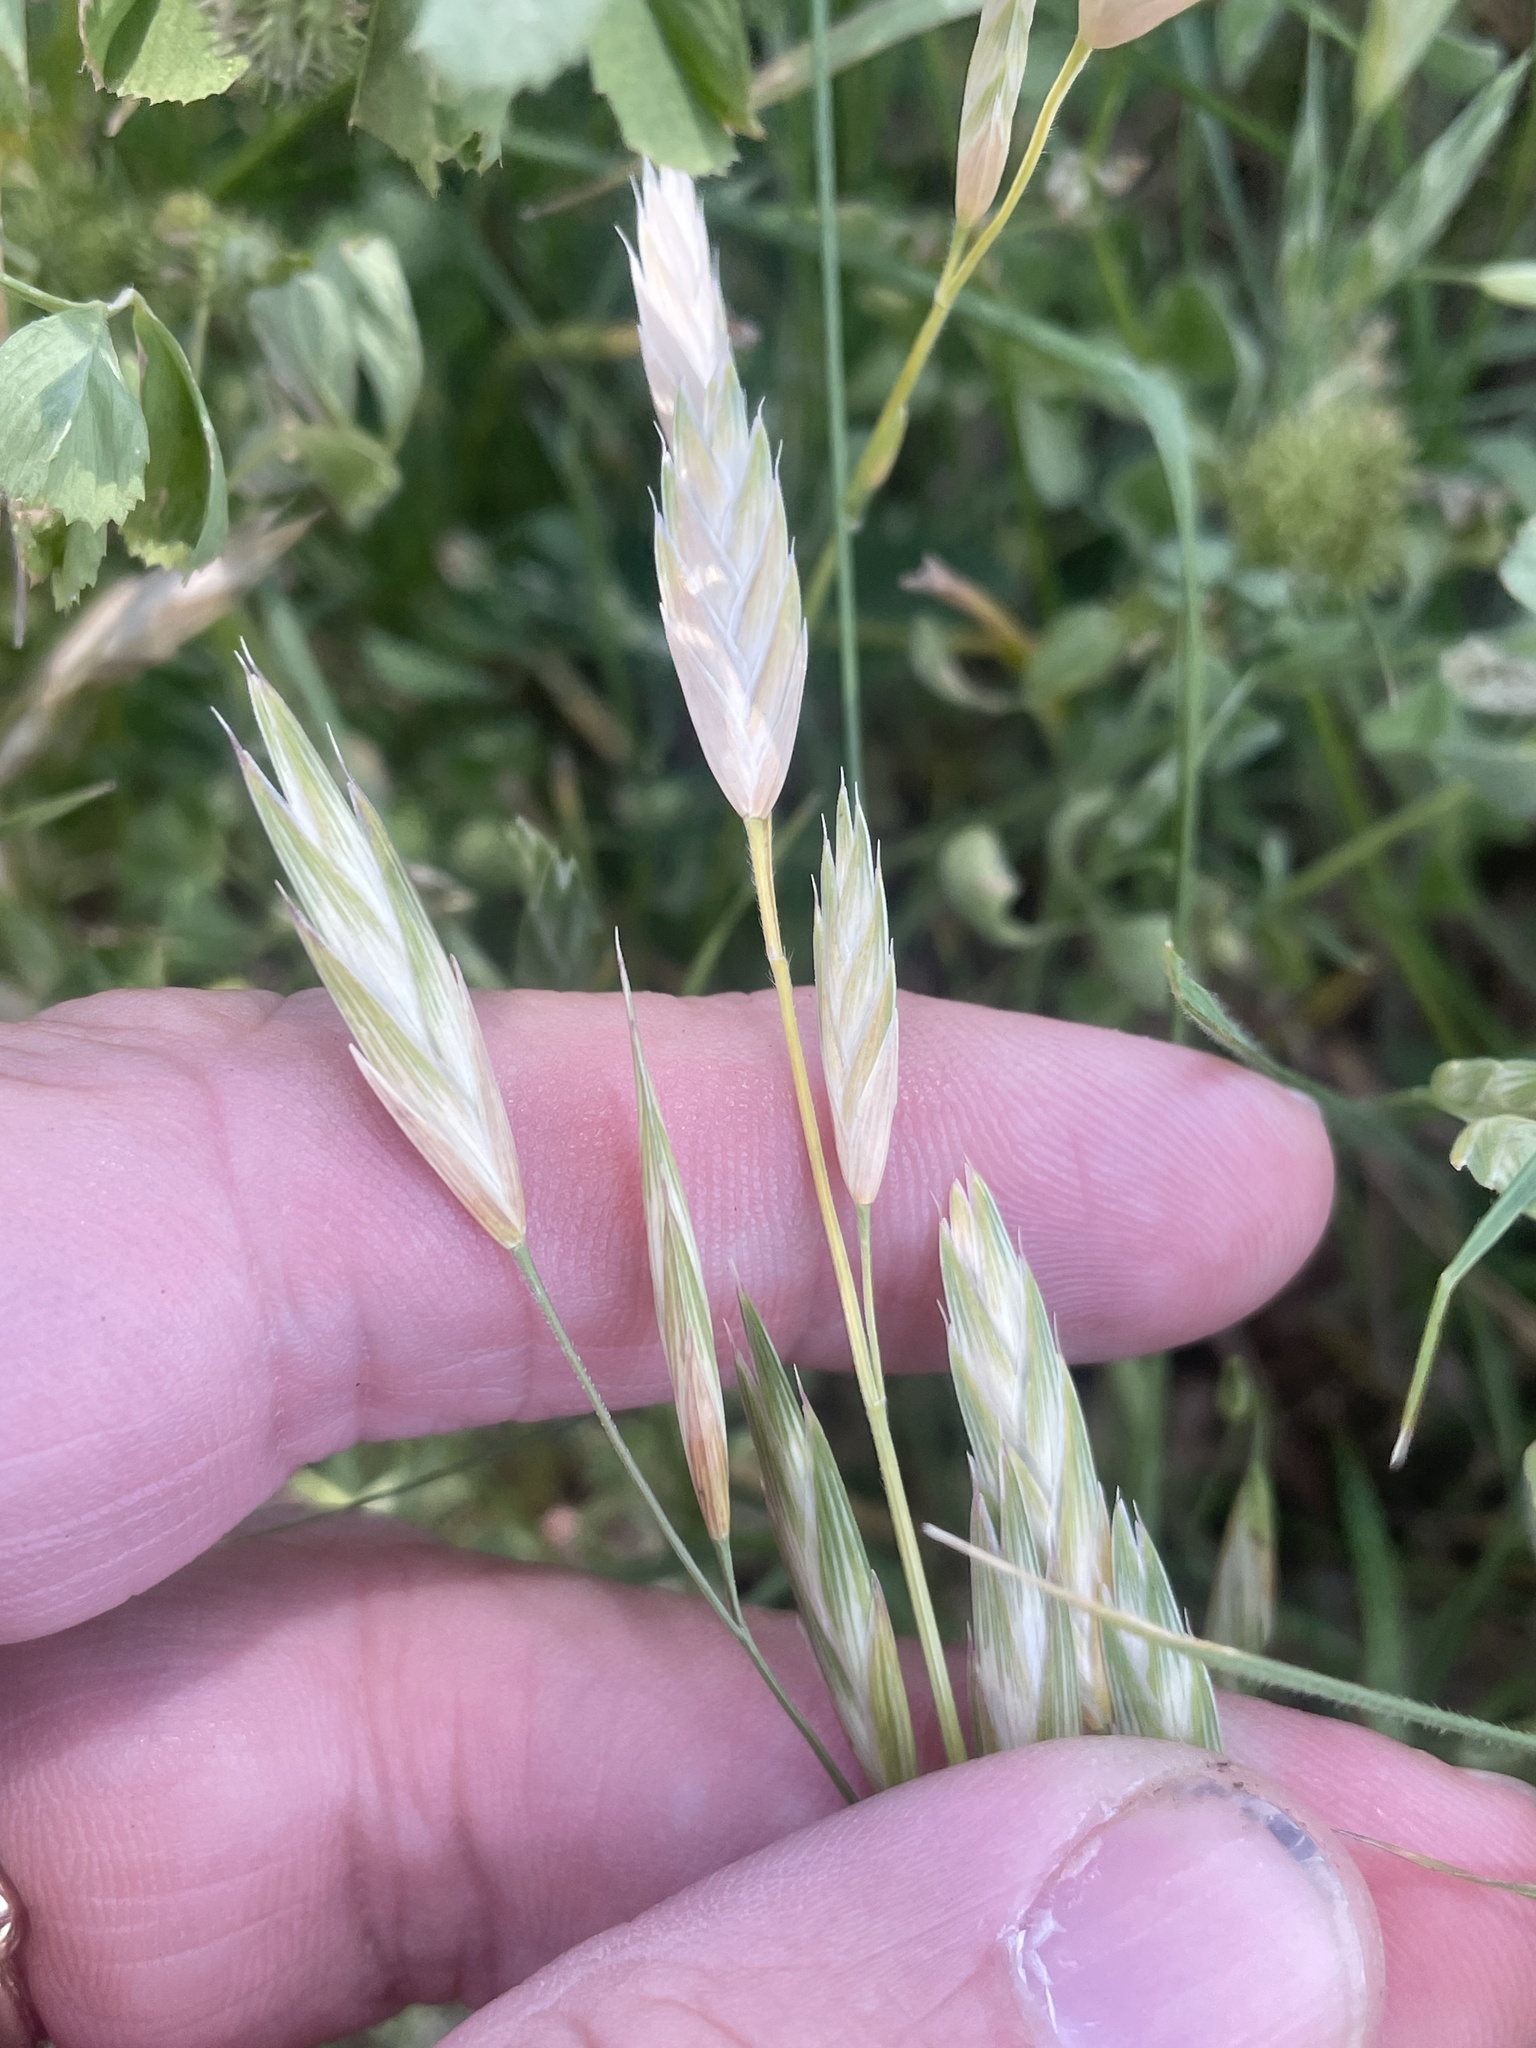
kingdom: Plantae
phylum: Tracheophyta
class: Liliopsida
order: Poales
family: Poaceae
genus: Bromus
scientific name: Bromus catharticus
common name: Rescuegrass
